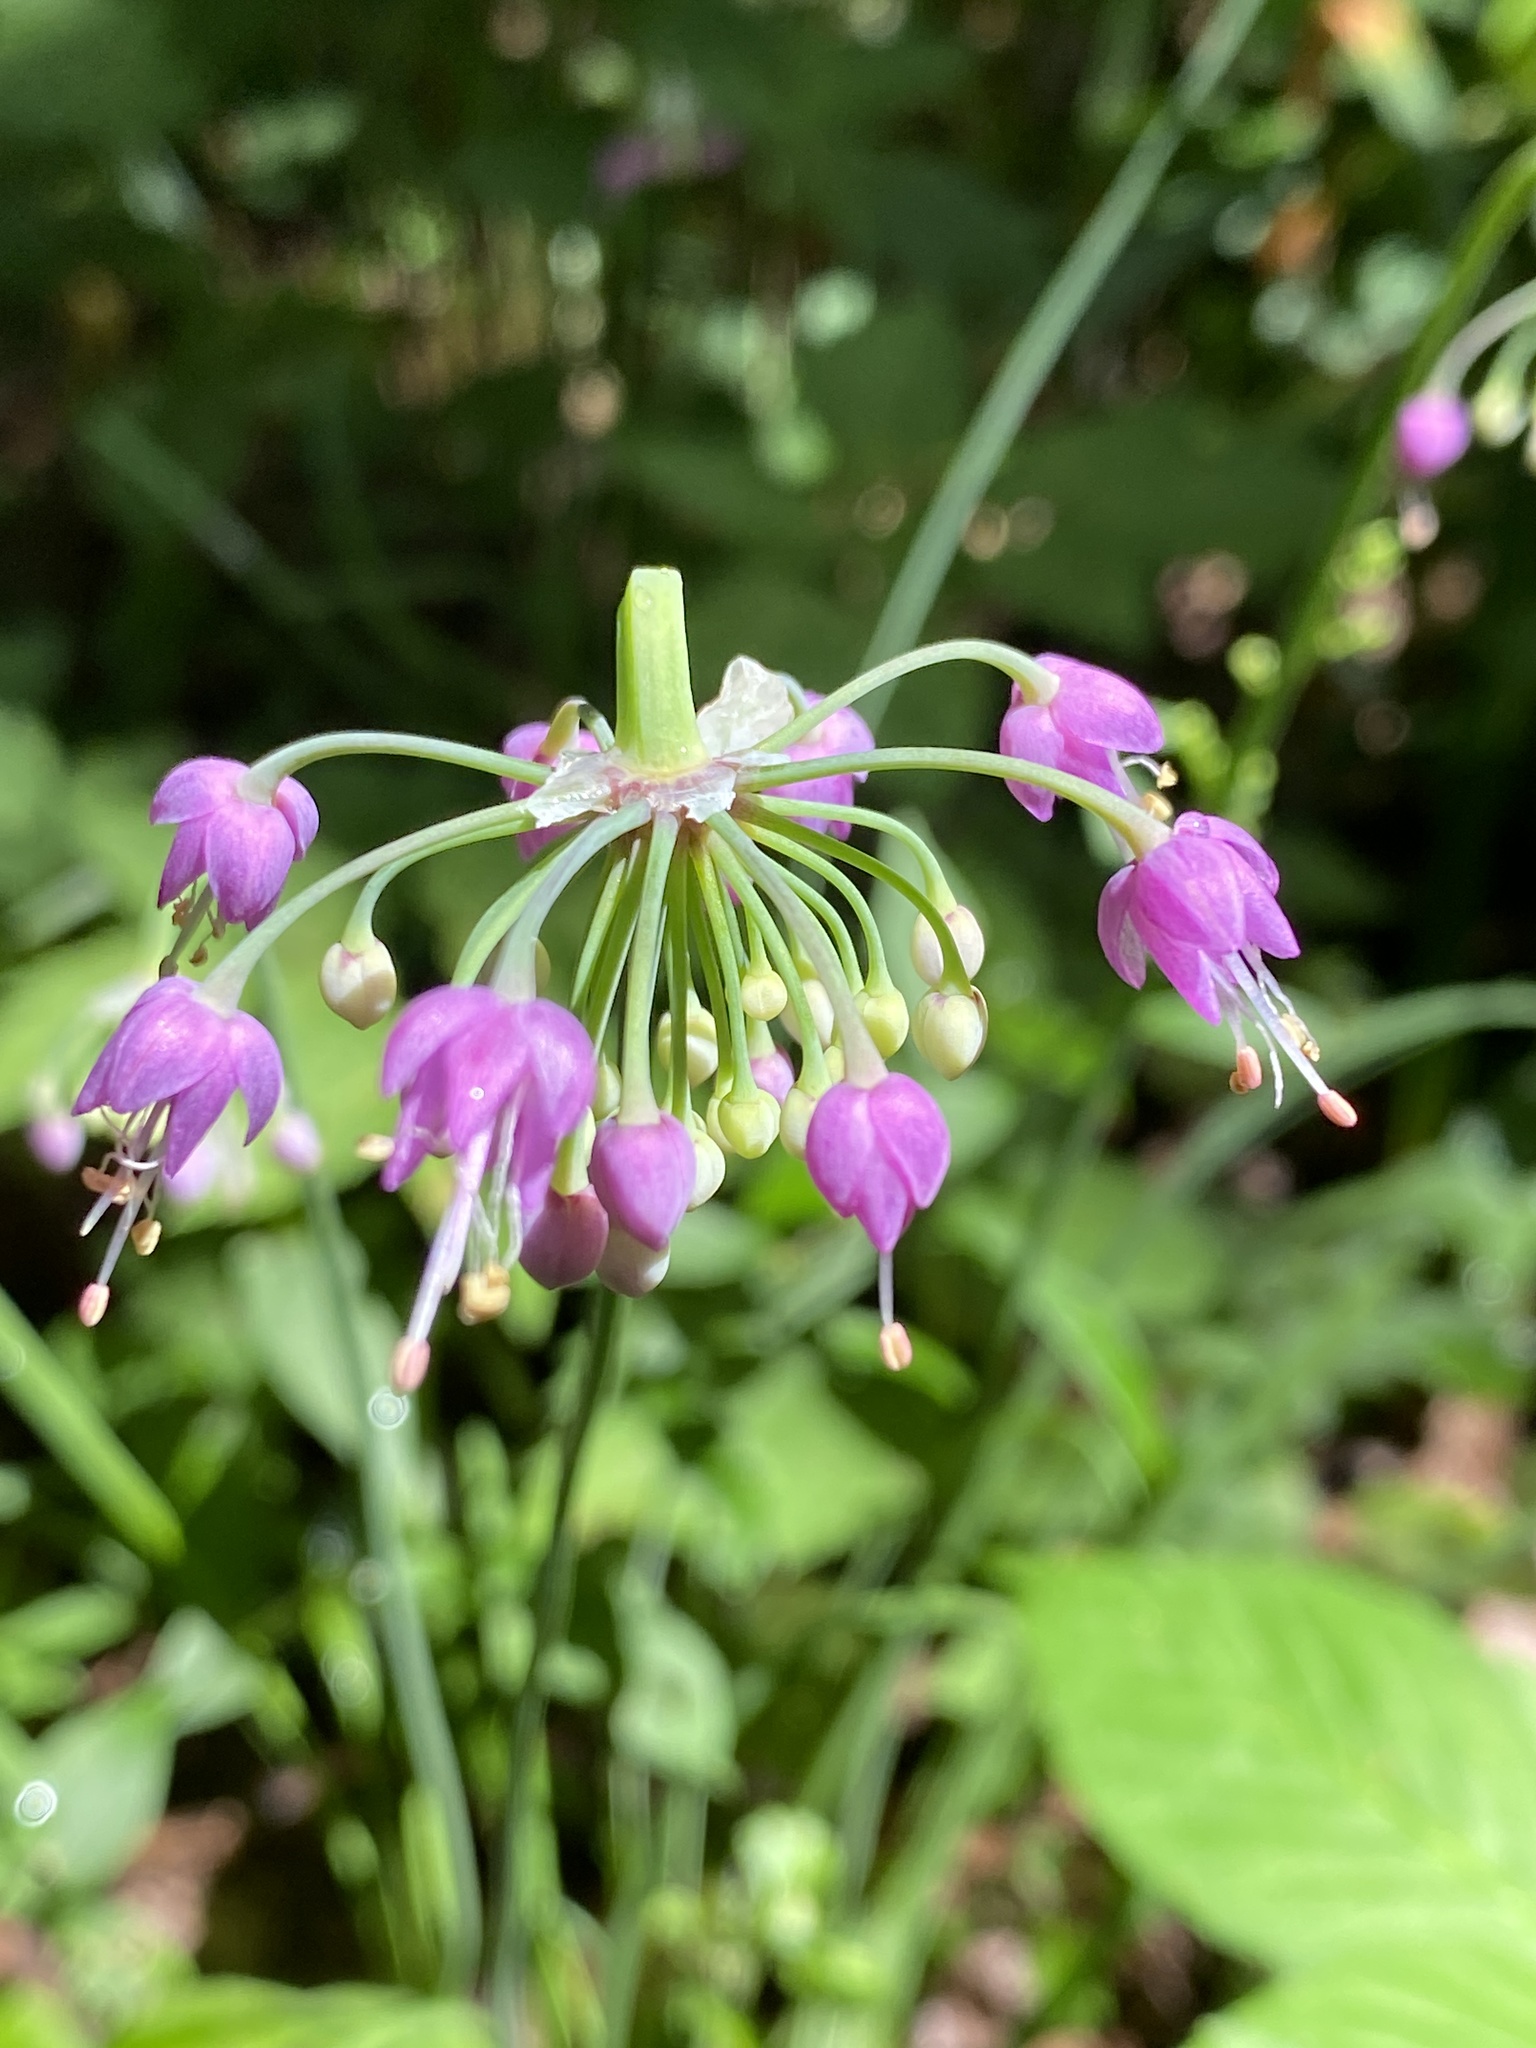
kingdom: Plantae
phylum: Tracheophyta
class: Liliopsida
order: Asparagales
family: Amaryllidaceae
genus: Allium
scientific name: Allium cernuum
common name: Nodding onion
